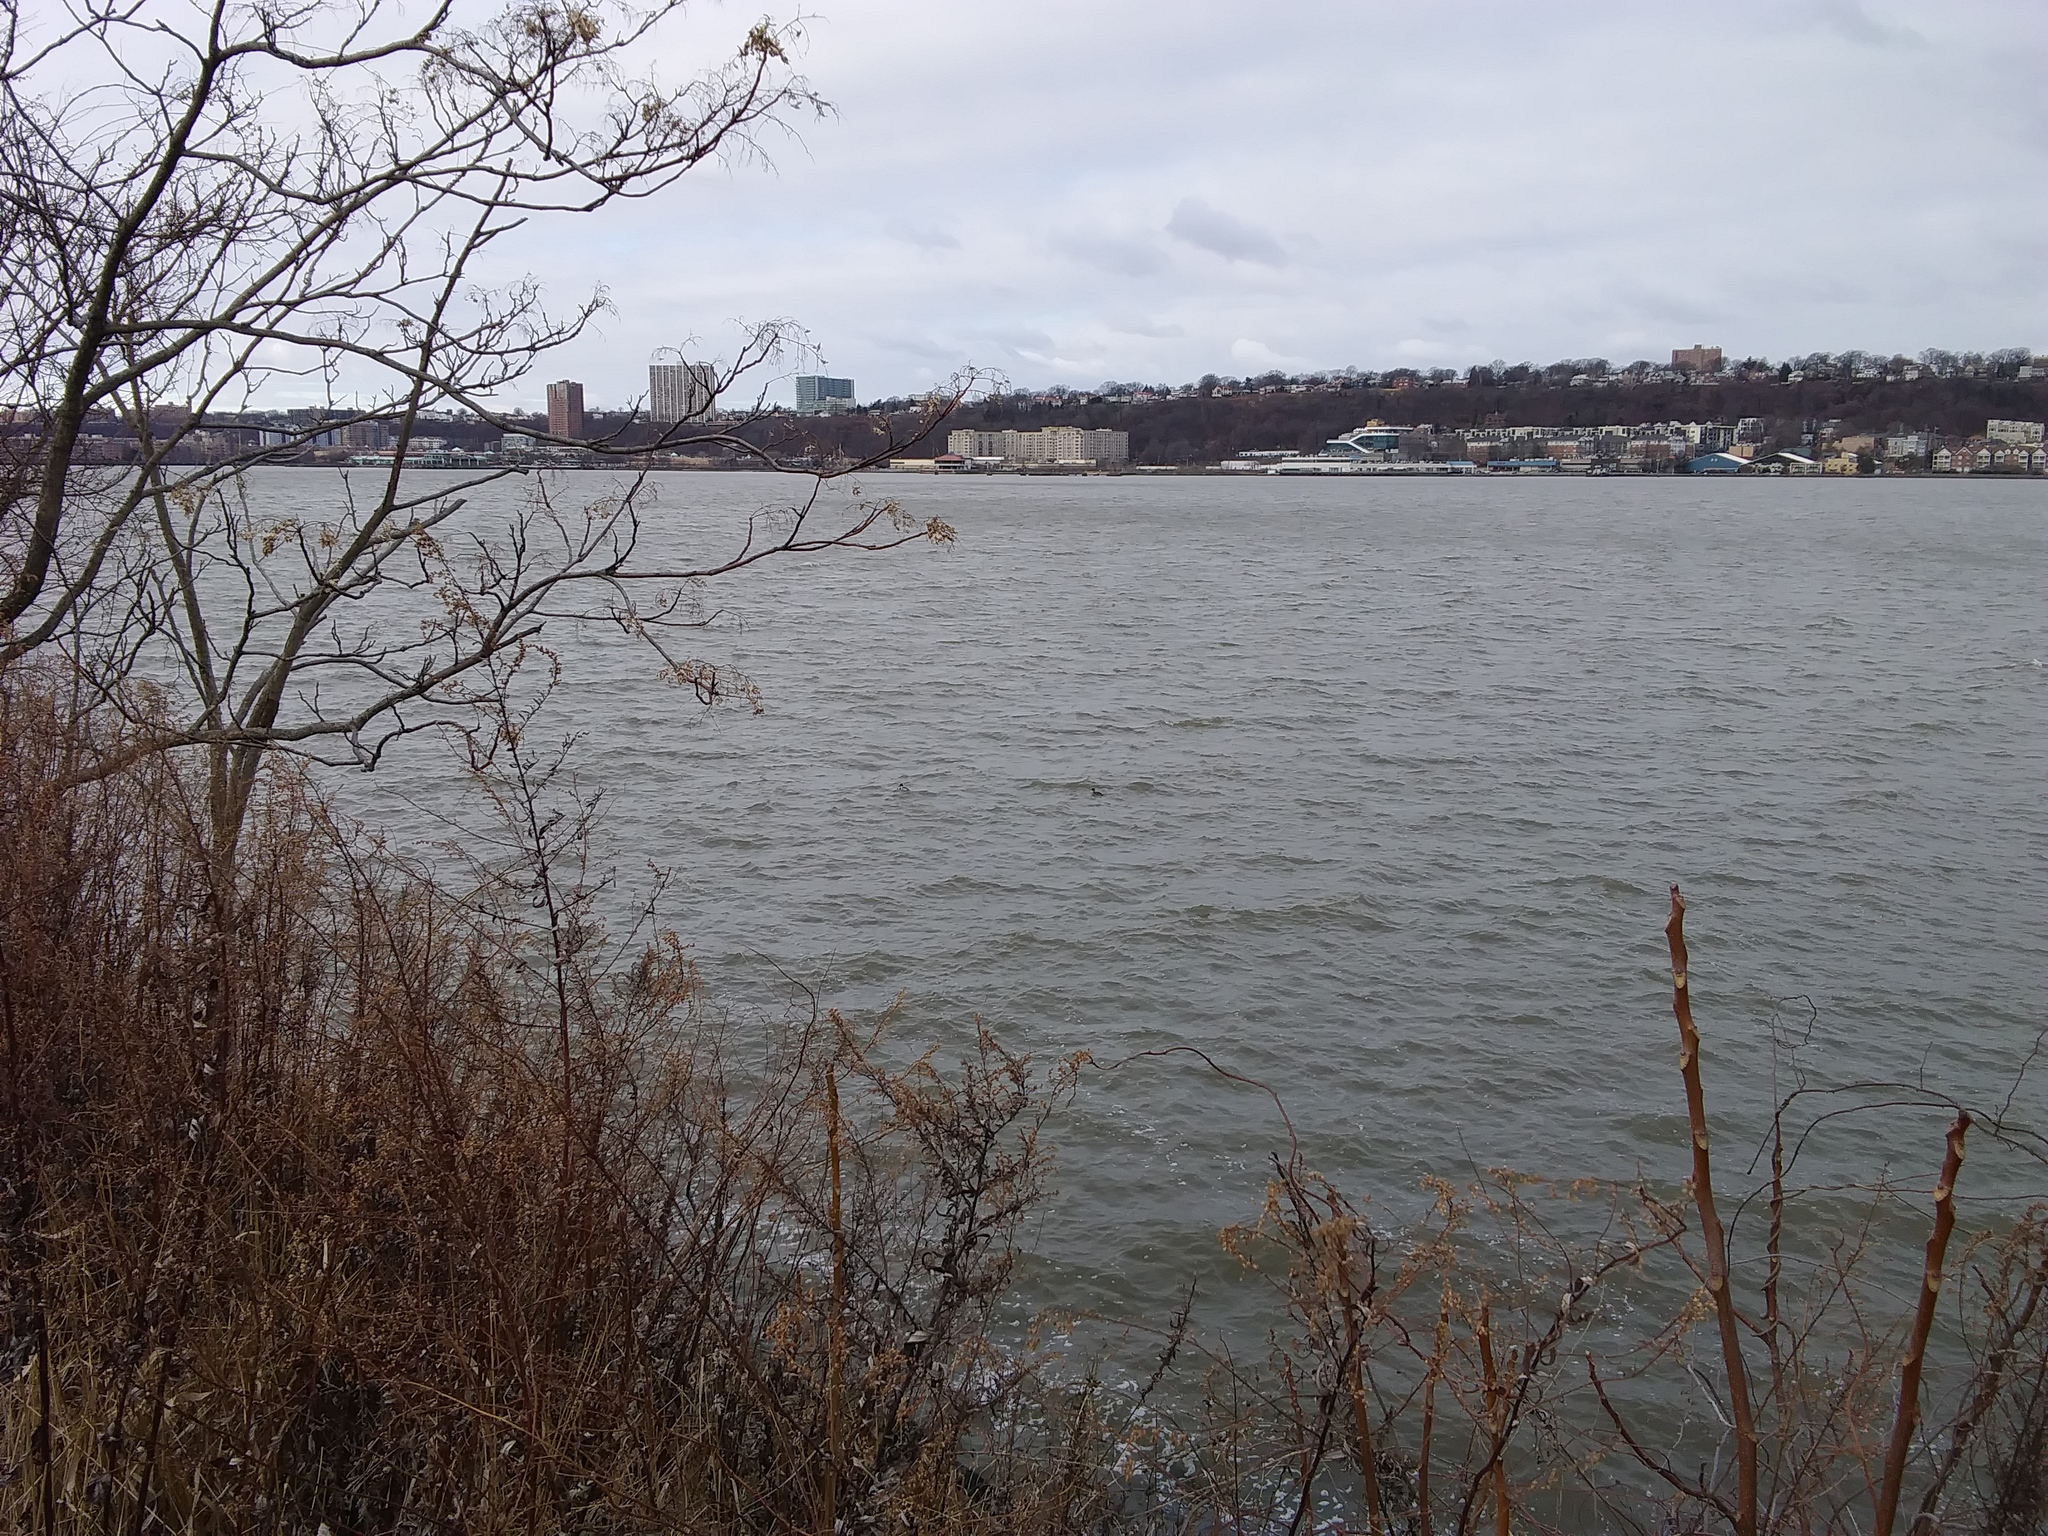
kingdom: Animalia
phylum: Chordata
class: Aves
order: Anseriformes
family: Anatidae
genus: Mergus
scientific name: Mergus serrator
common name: Red-breasted merganser
